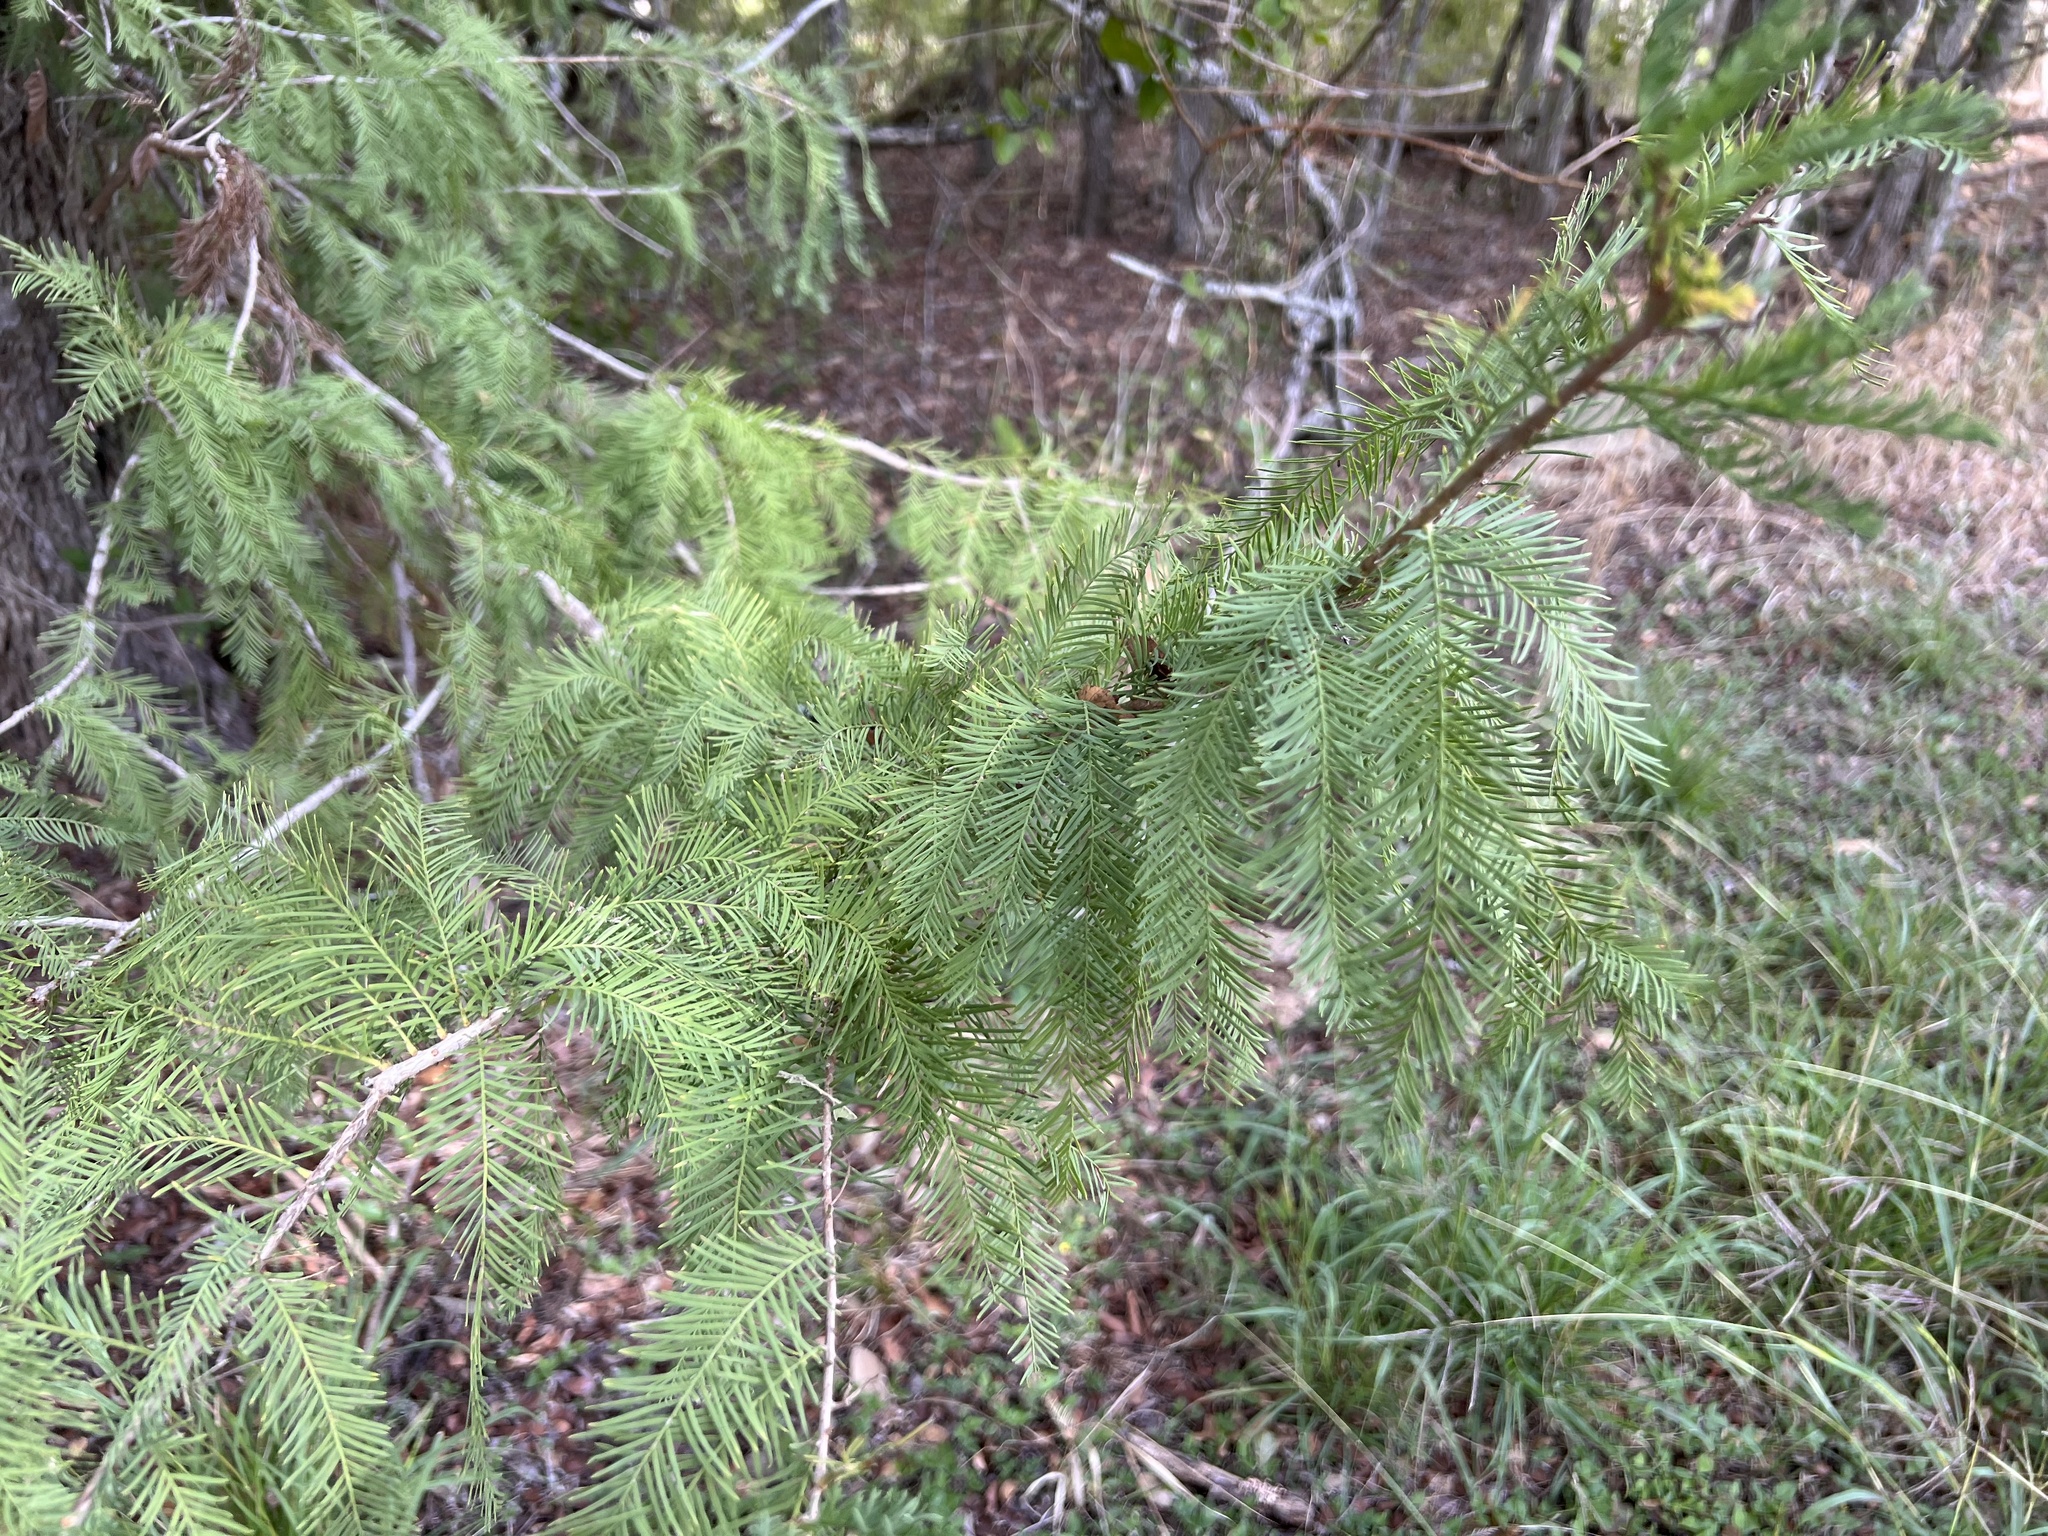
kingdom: Plantae
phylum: Tracheophyta
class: Pinopsida
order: Pinales
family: Cupressaceae
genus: Taxodium
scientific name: Taxodium distichum
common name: Bald cypress
